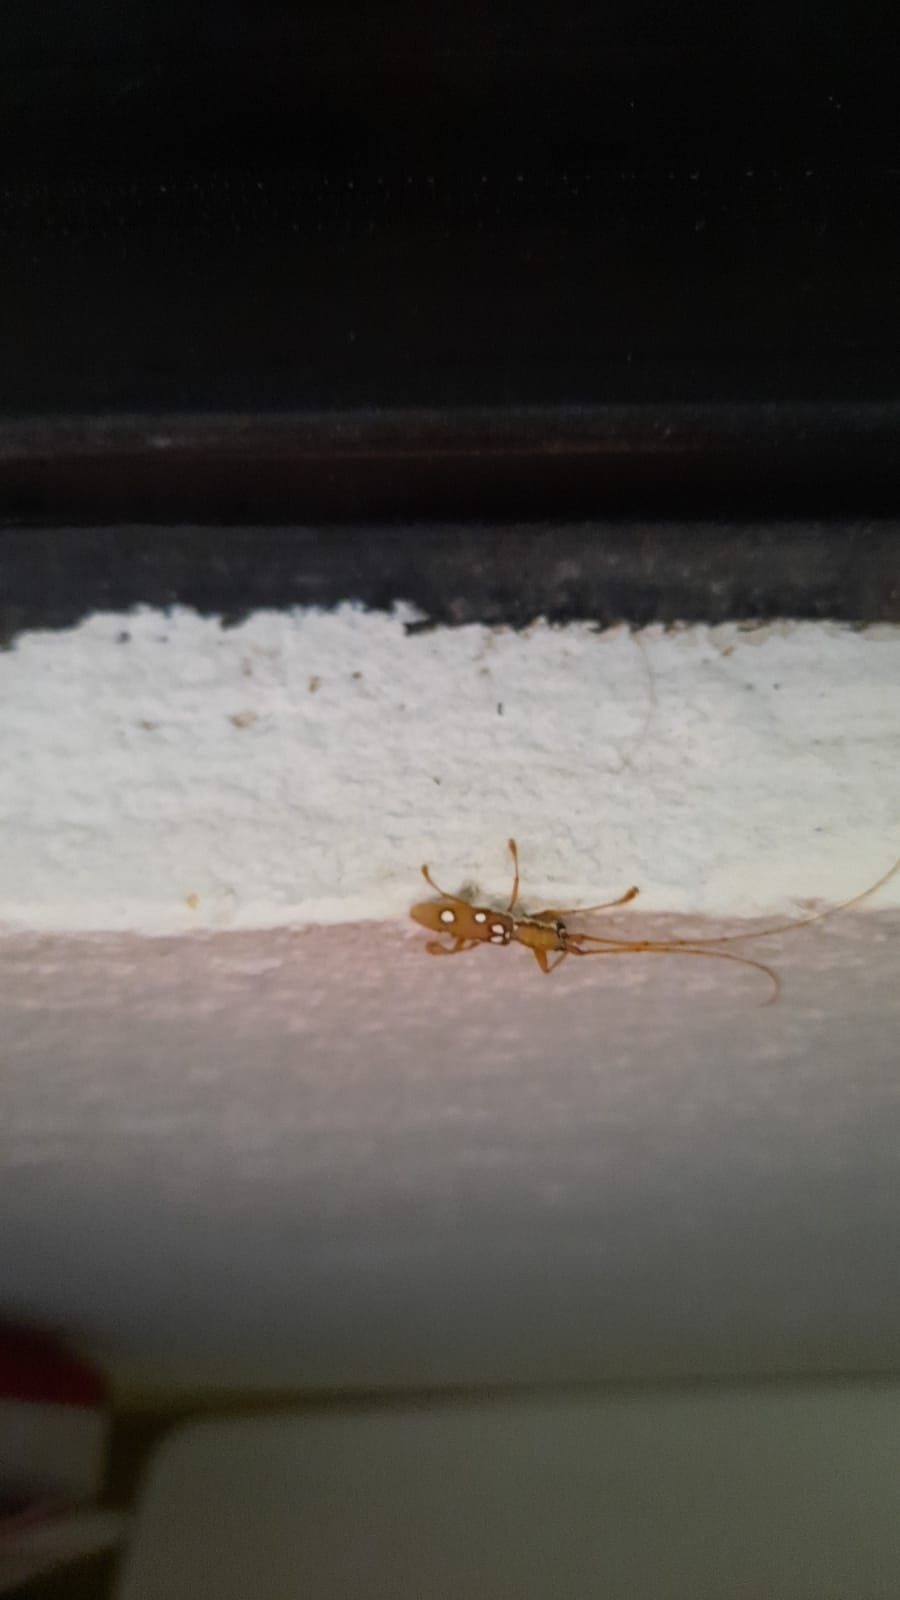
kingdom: Animalia
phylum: Arthropoda
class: Insecta
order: Coleoptera
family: Cerambycidae
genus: Olenecamptus
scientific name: Olenecamptus taiwanus
